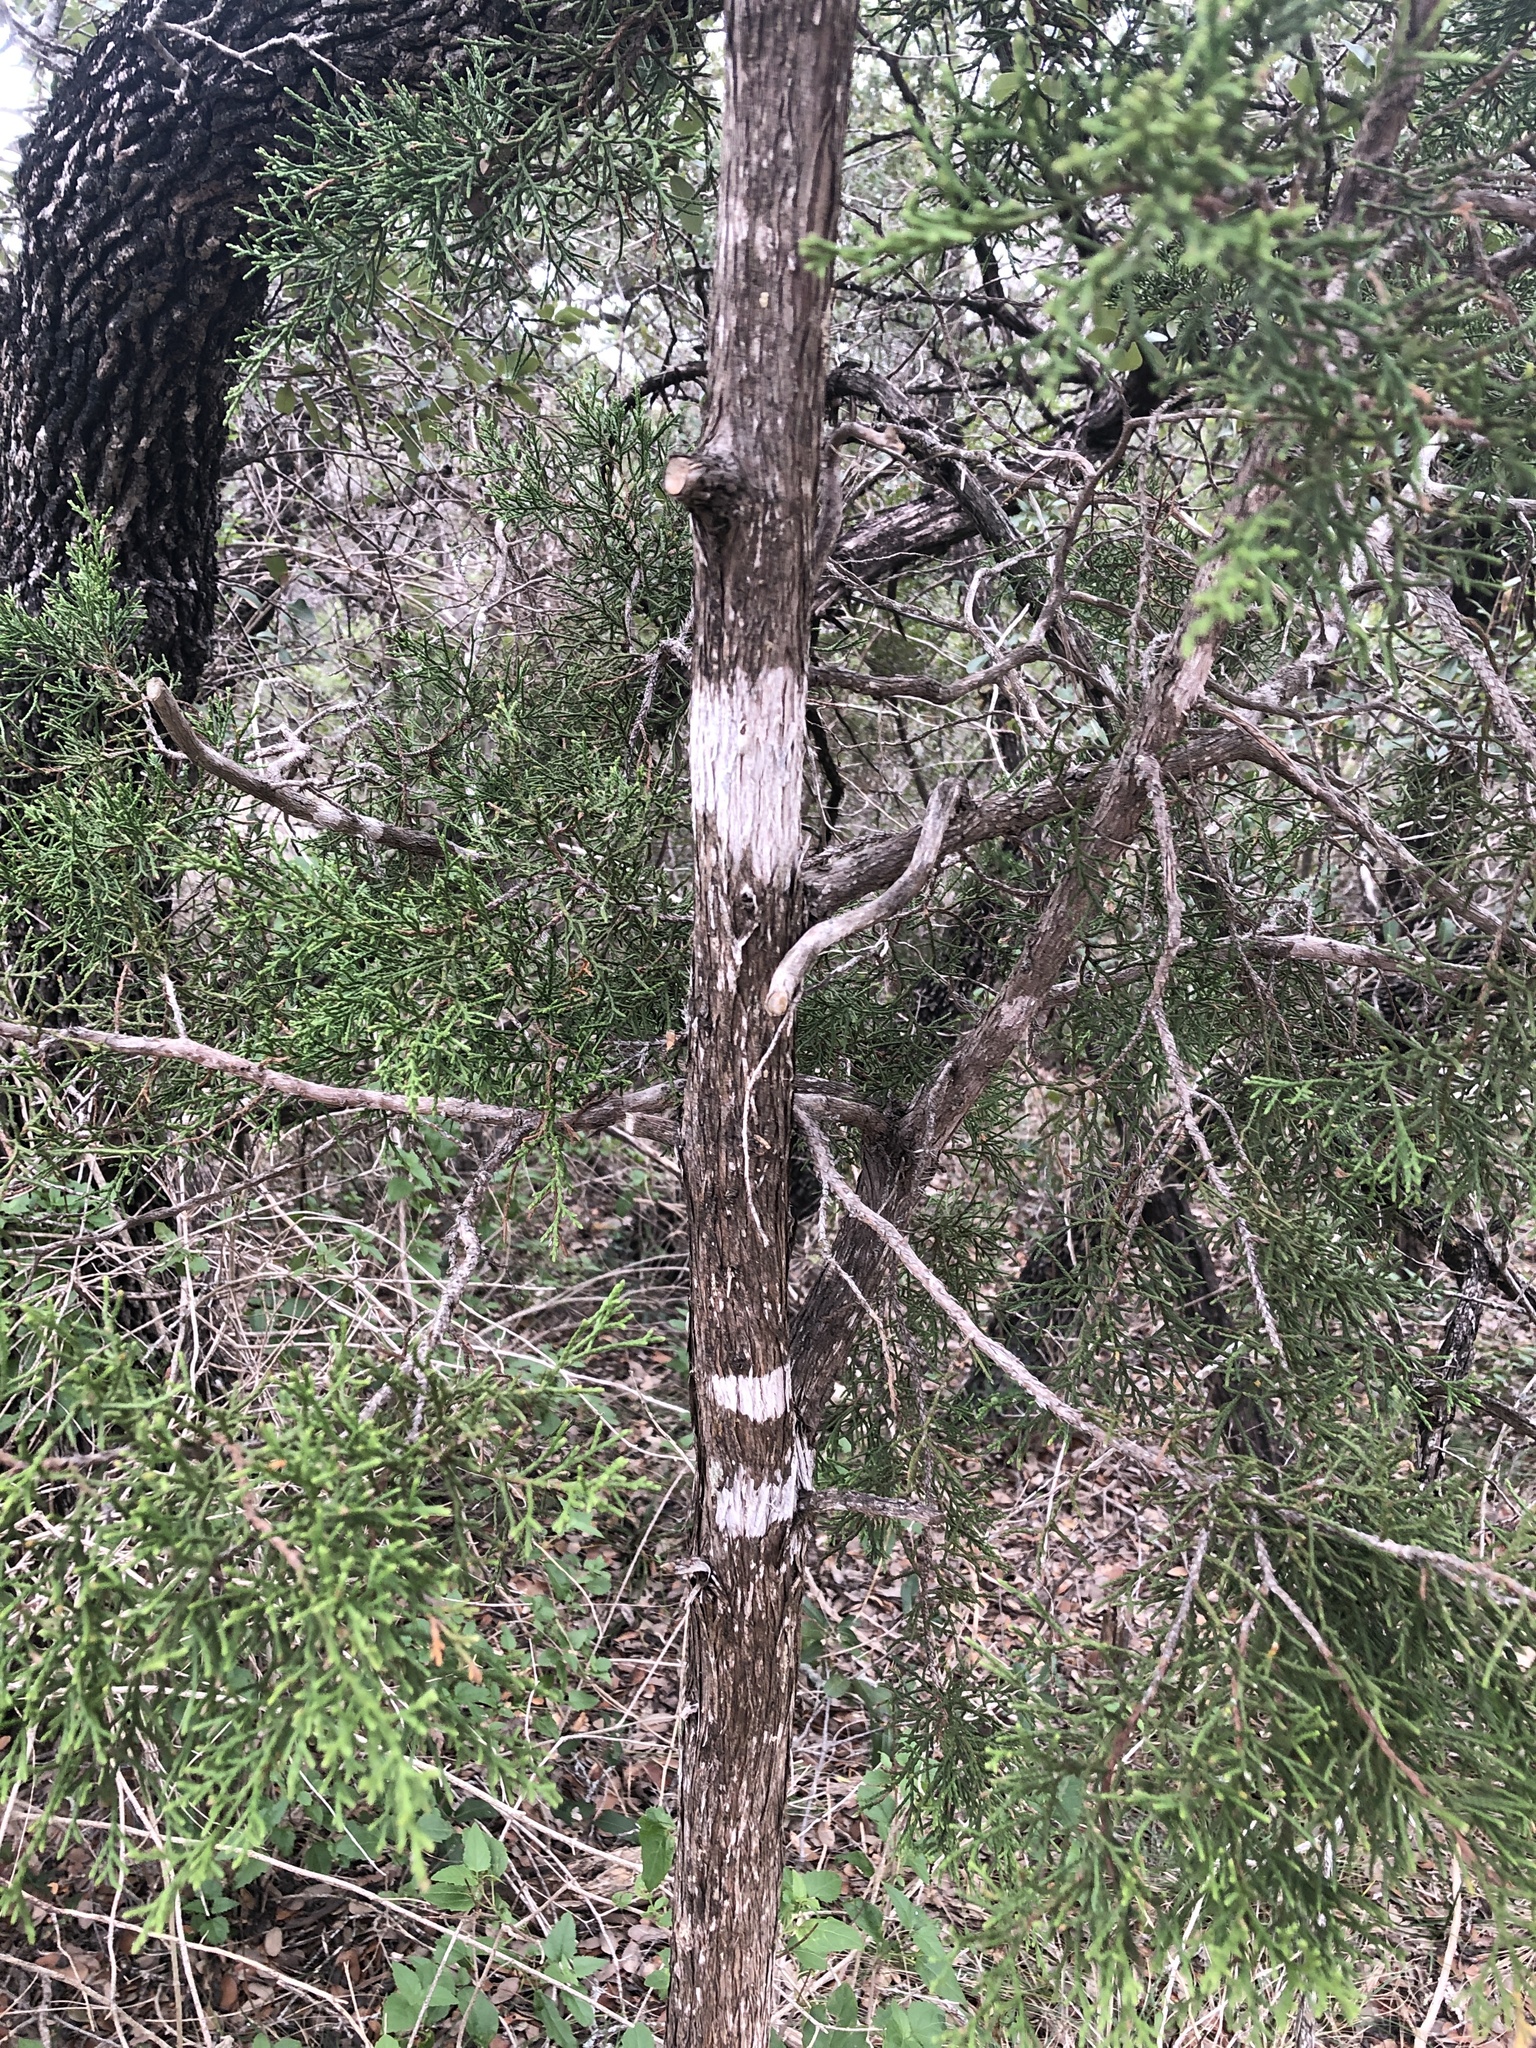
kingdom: Fungi
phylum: Ascomycota
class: Lecanoromycetes
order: Ostropales
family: Stictidaceae
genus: Robergea
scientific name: Robergea
